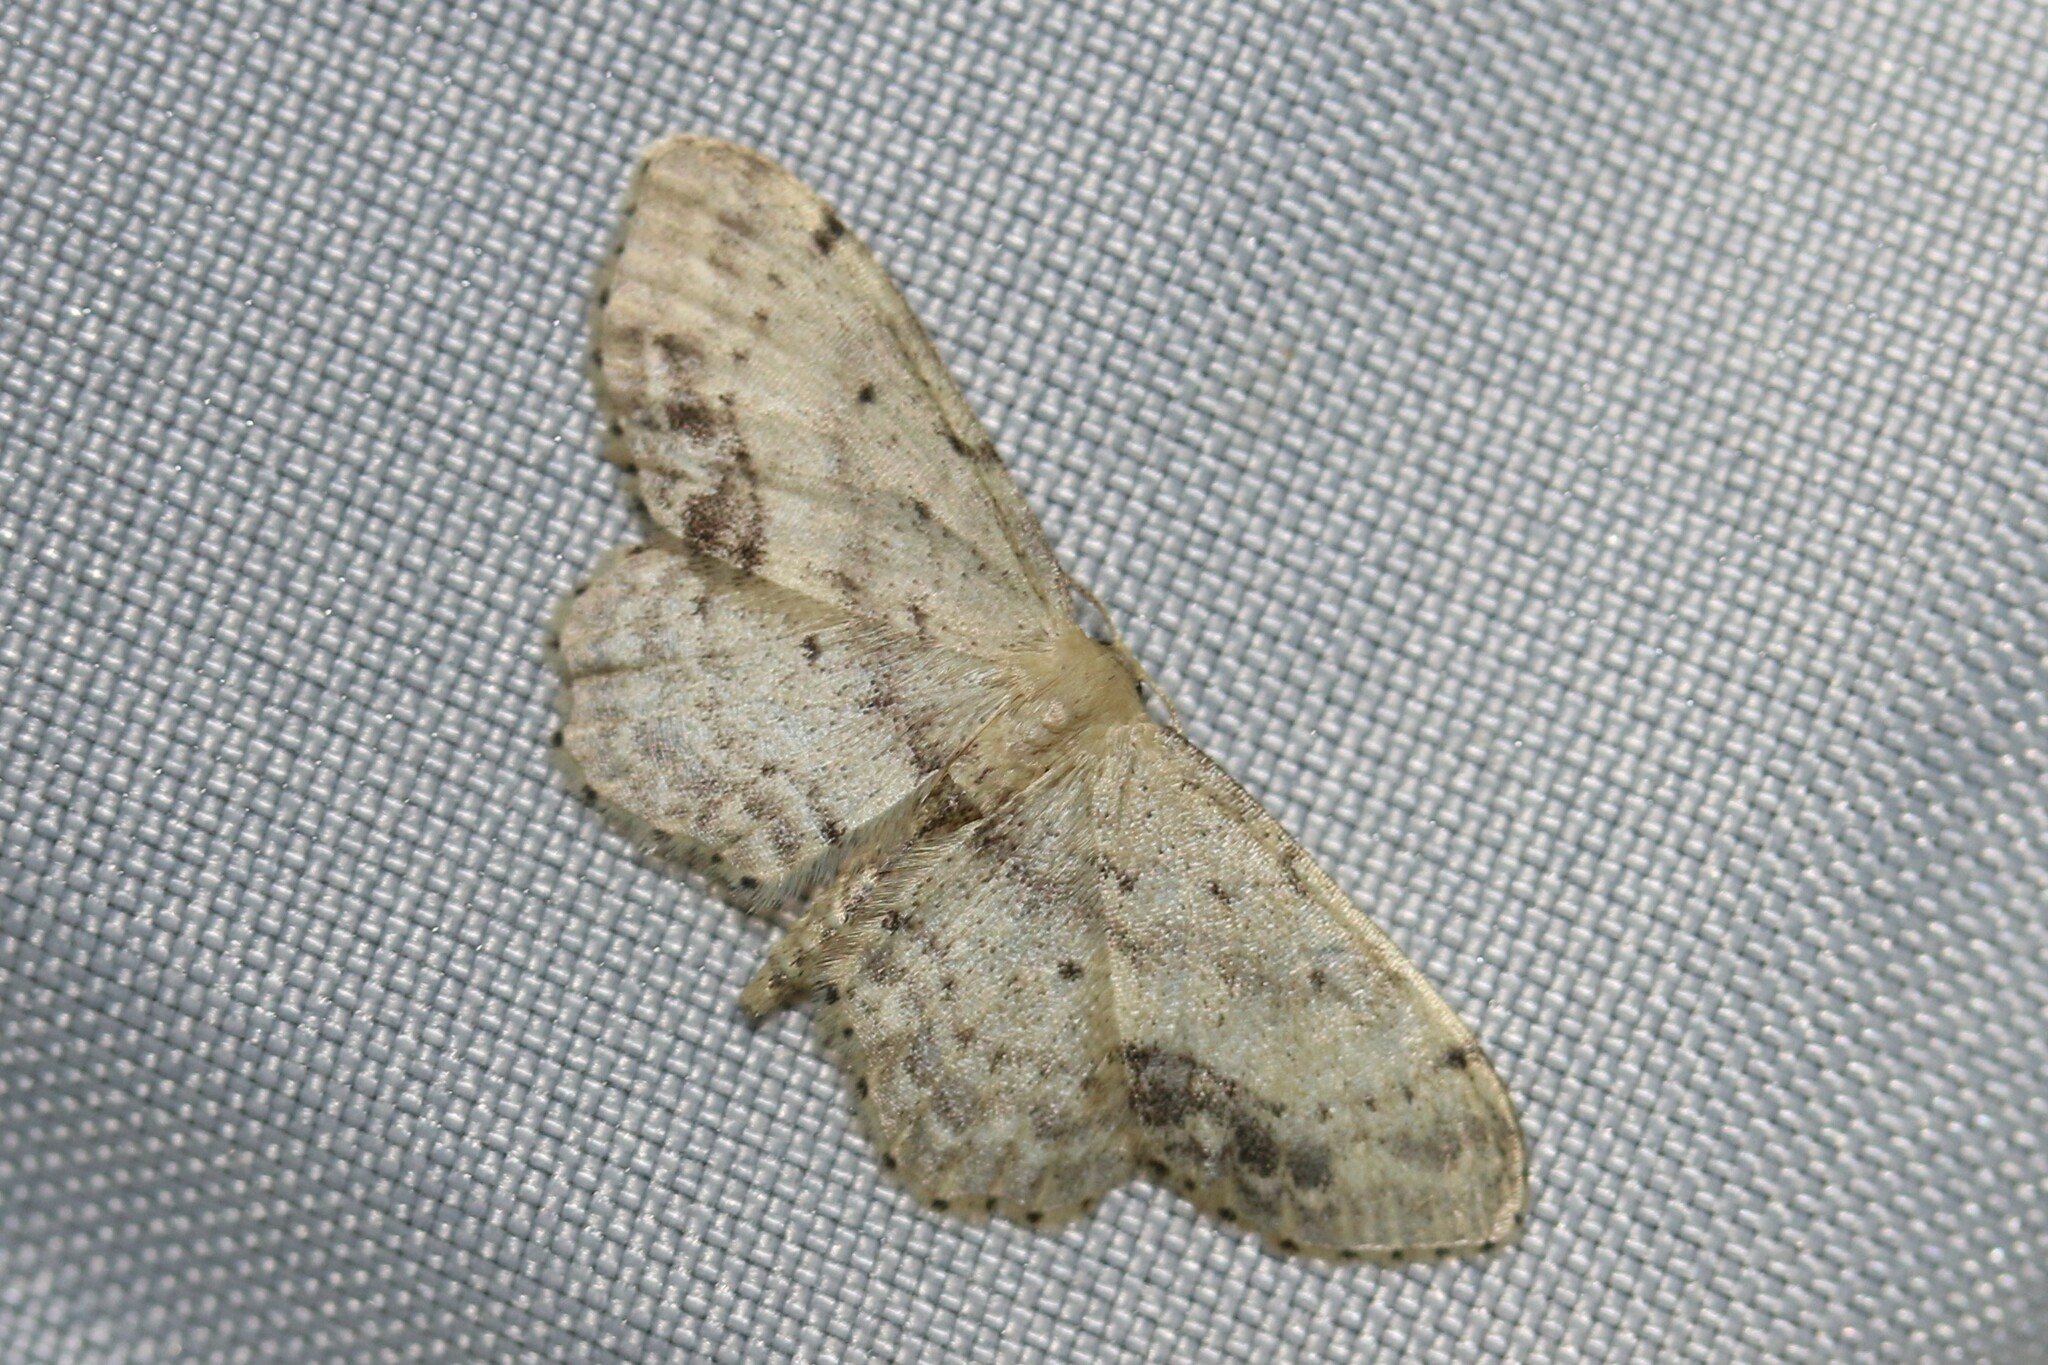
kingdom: Animalia
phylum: Arthropoda
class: Insecta
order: Lepidoptera
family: Geometridae
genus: Idaea
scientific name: Idaea dimidiata
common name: Single-dotted wave
